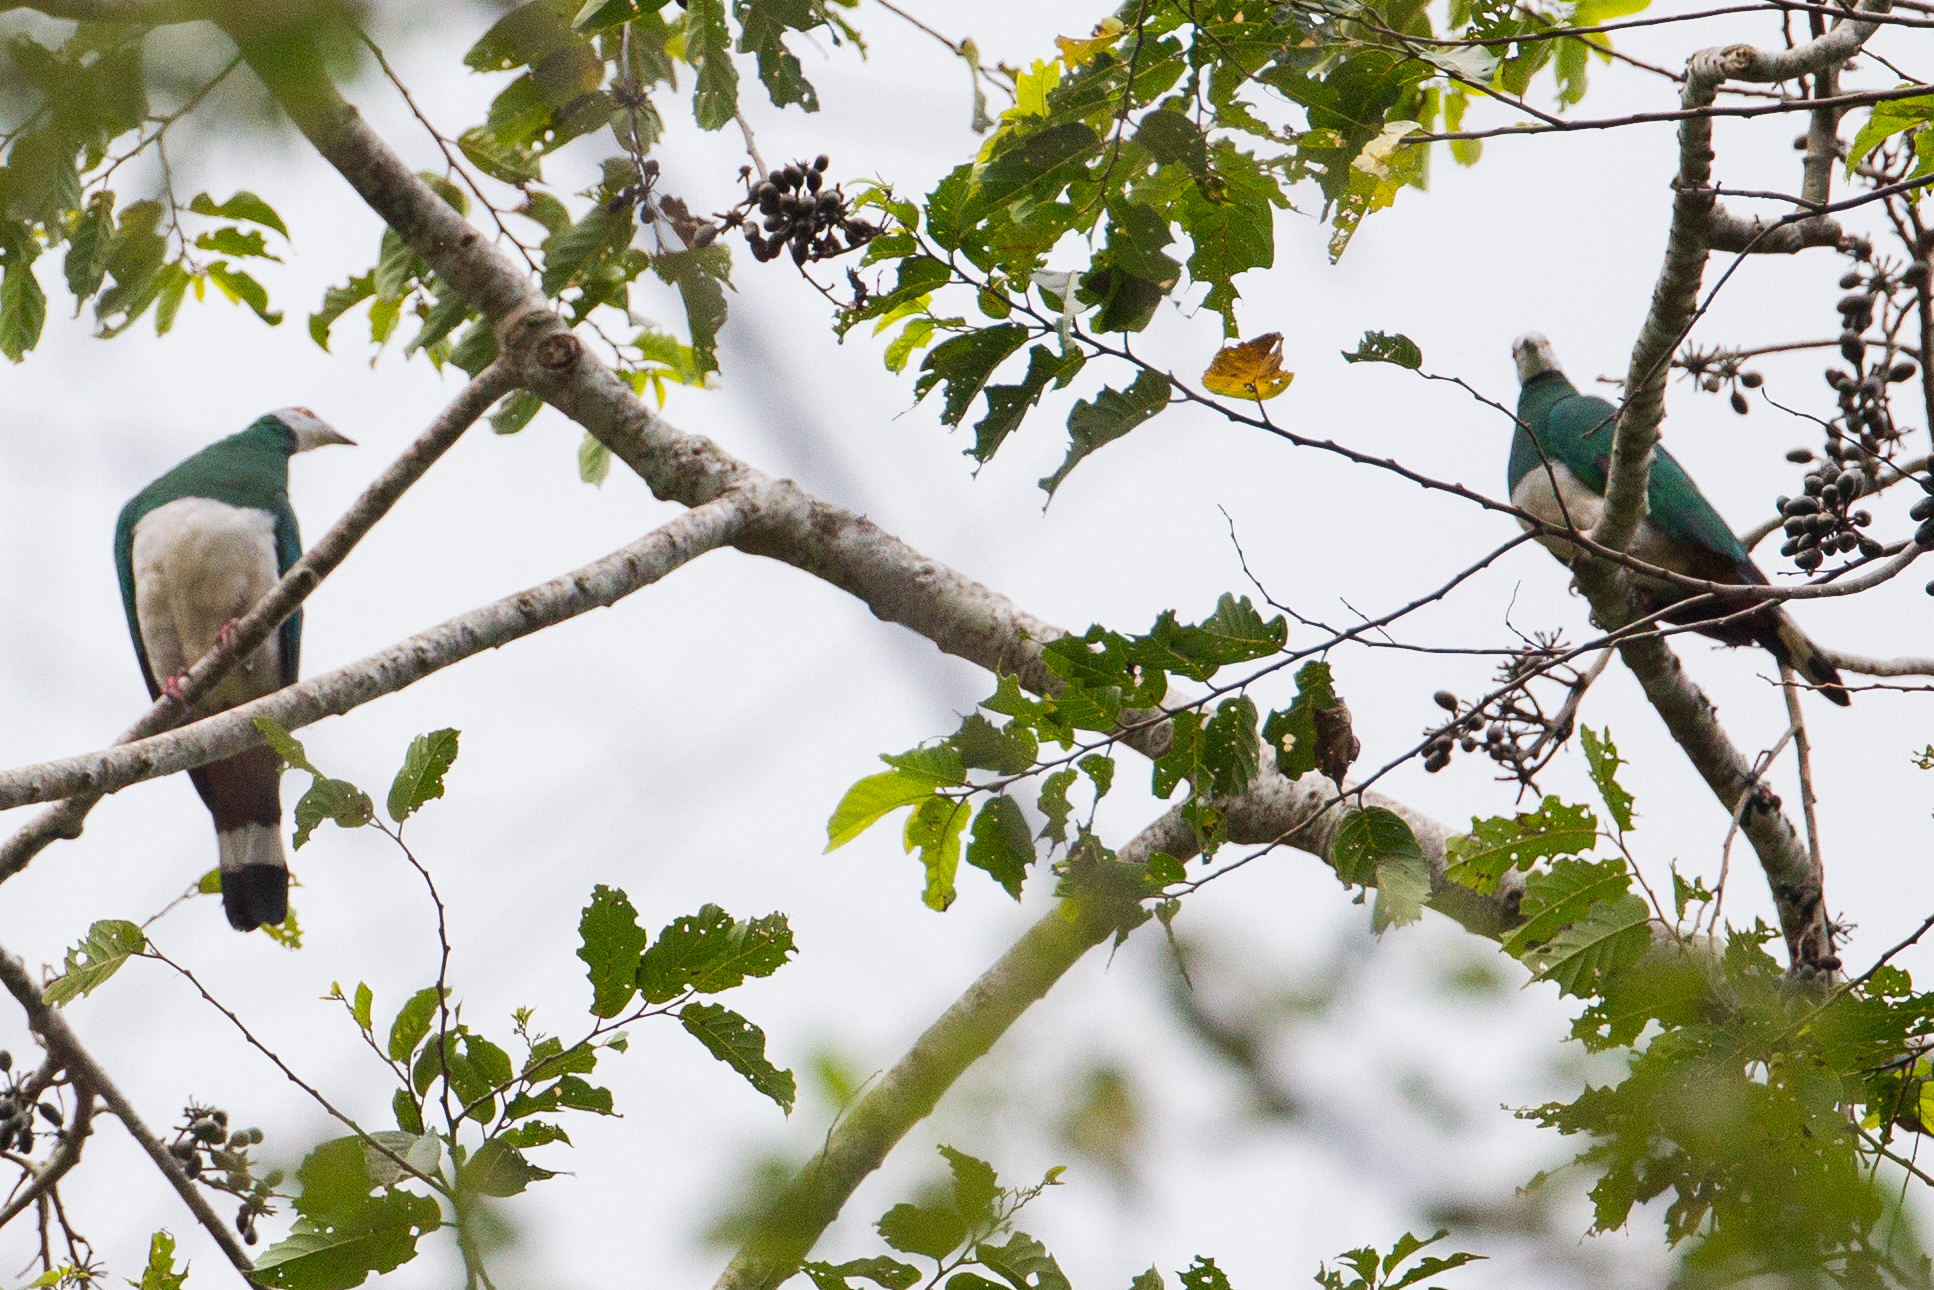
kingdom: Animalia
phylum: Chordata
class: Aves
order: Columbiformes
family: Columbidae
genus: Ducula
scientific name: Ducula forsteni
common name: White-bellied imperial pigeon
